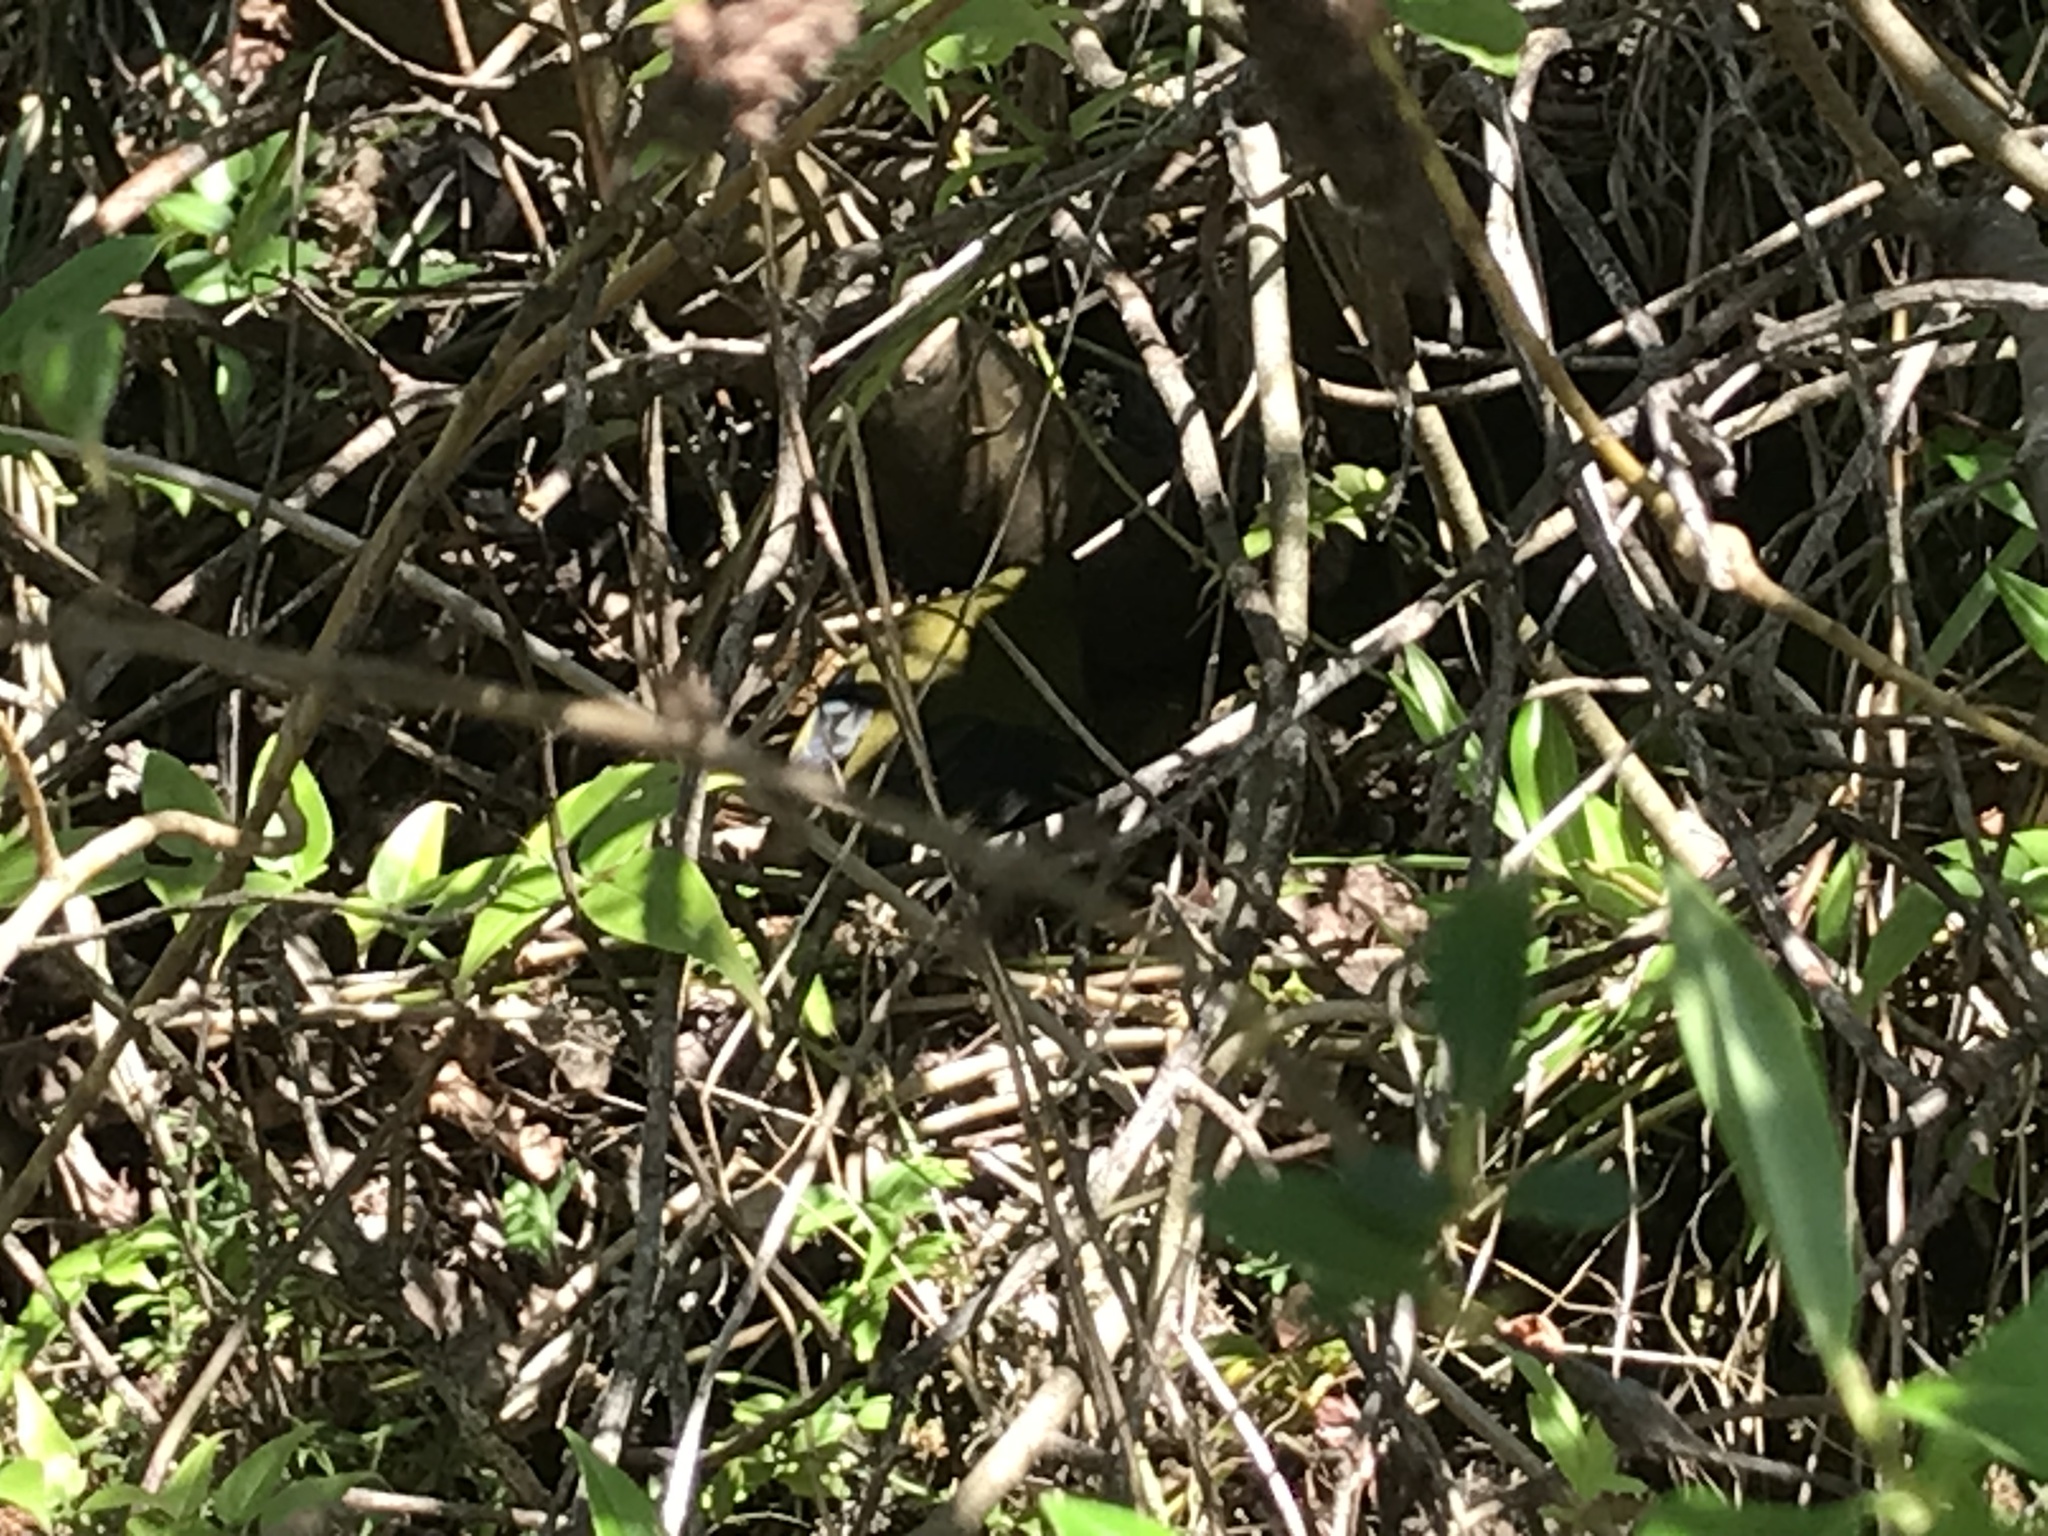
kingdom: Animalia
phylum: Chordata
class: Aves
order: Passeriformes
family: Meliphagidae
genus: Anthornis
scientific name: Anthornis melanura
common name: New zealand bellbird
